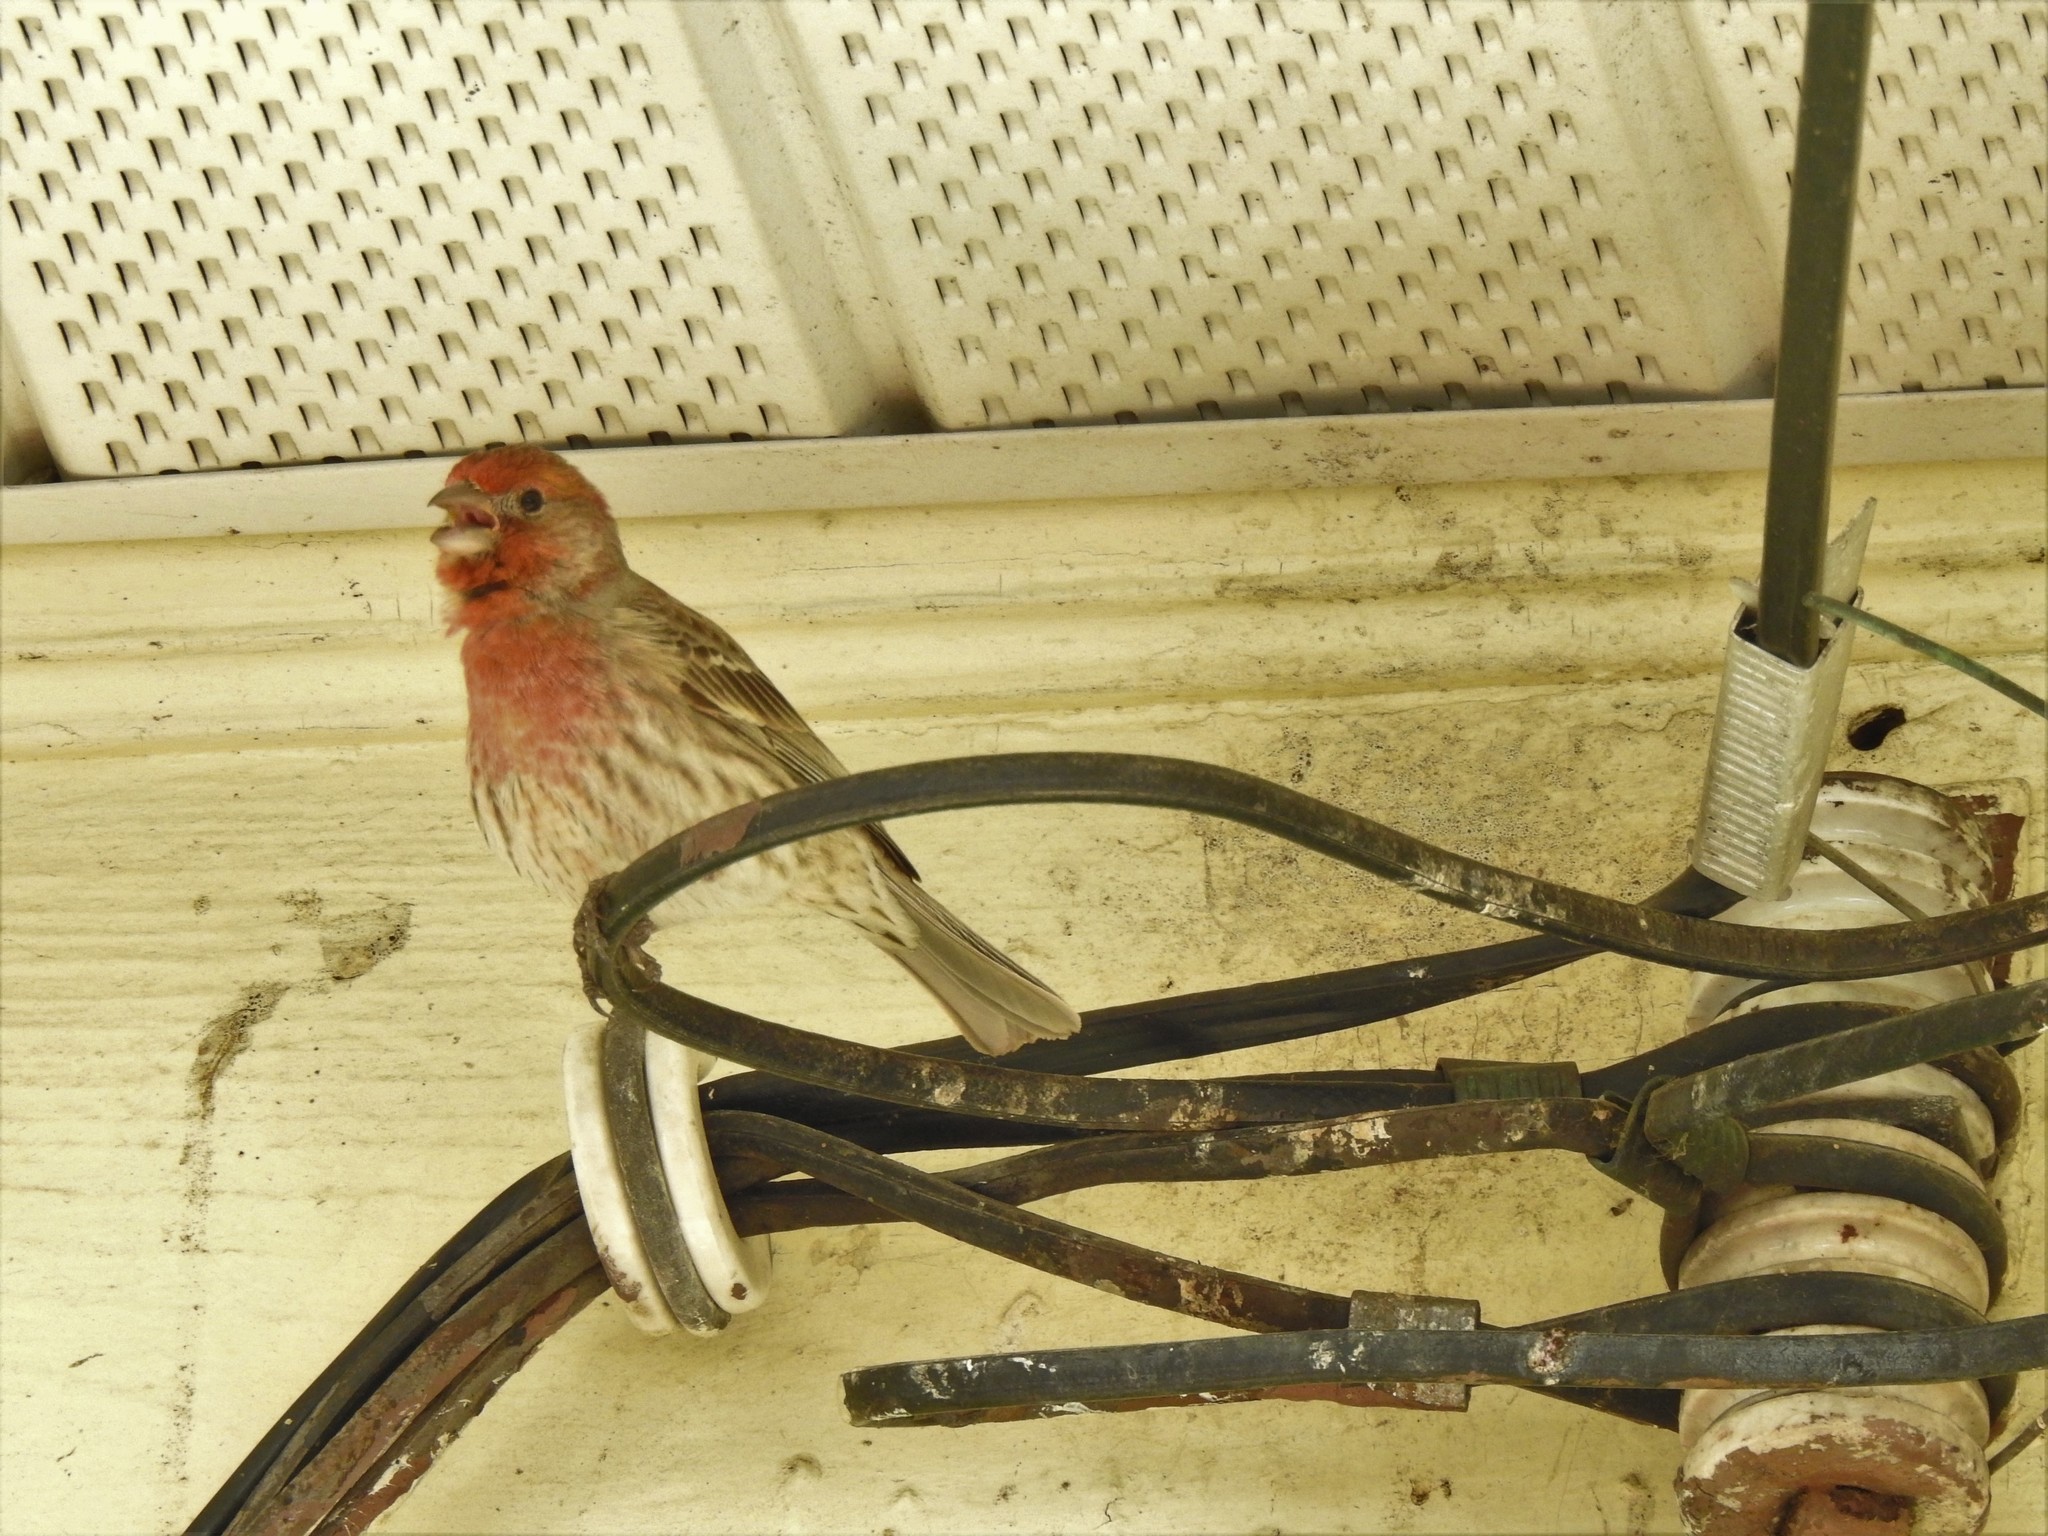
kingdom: Animalia
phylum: Chordata
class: Aves
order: Passeriformes
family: Fringillidae
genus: Haemorhous
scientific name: Haemorhous mexicanus
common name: House finch
